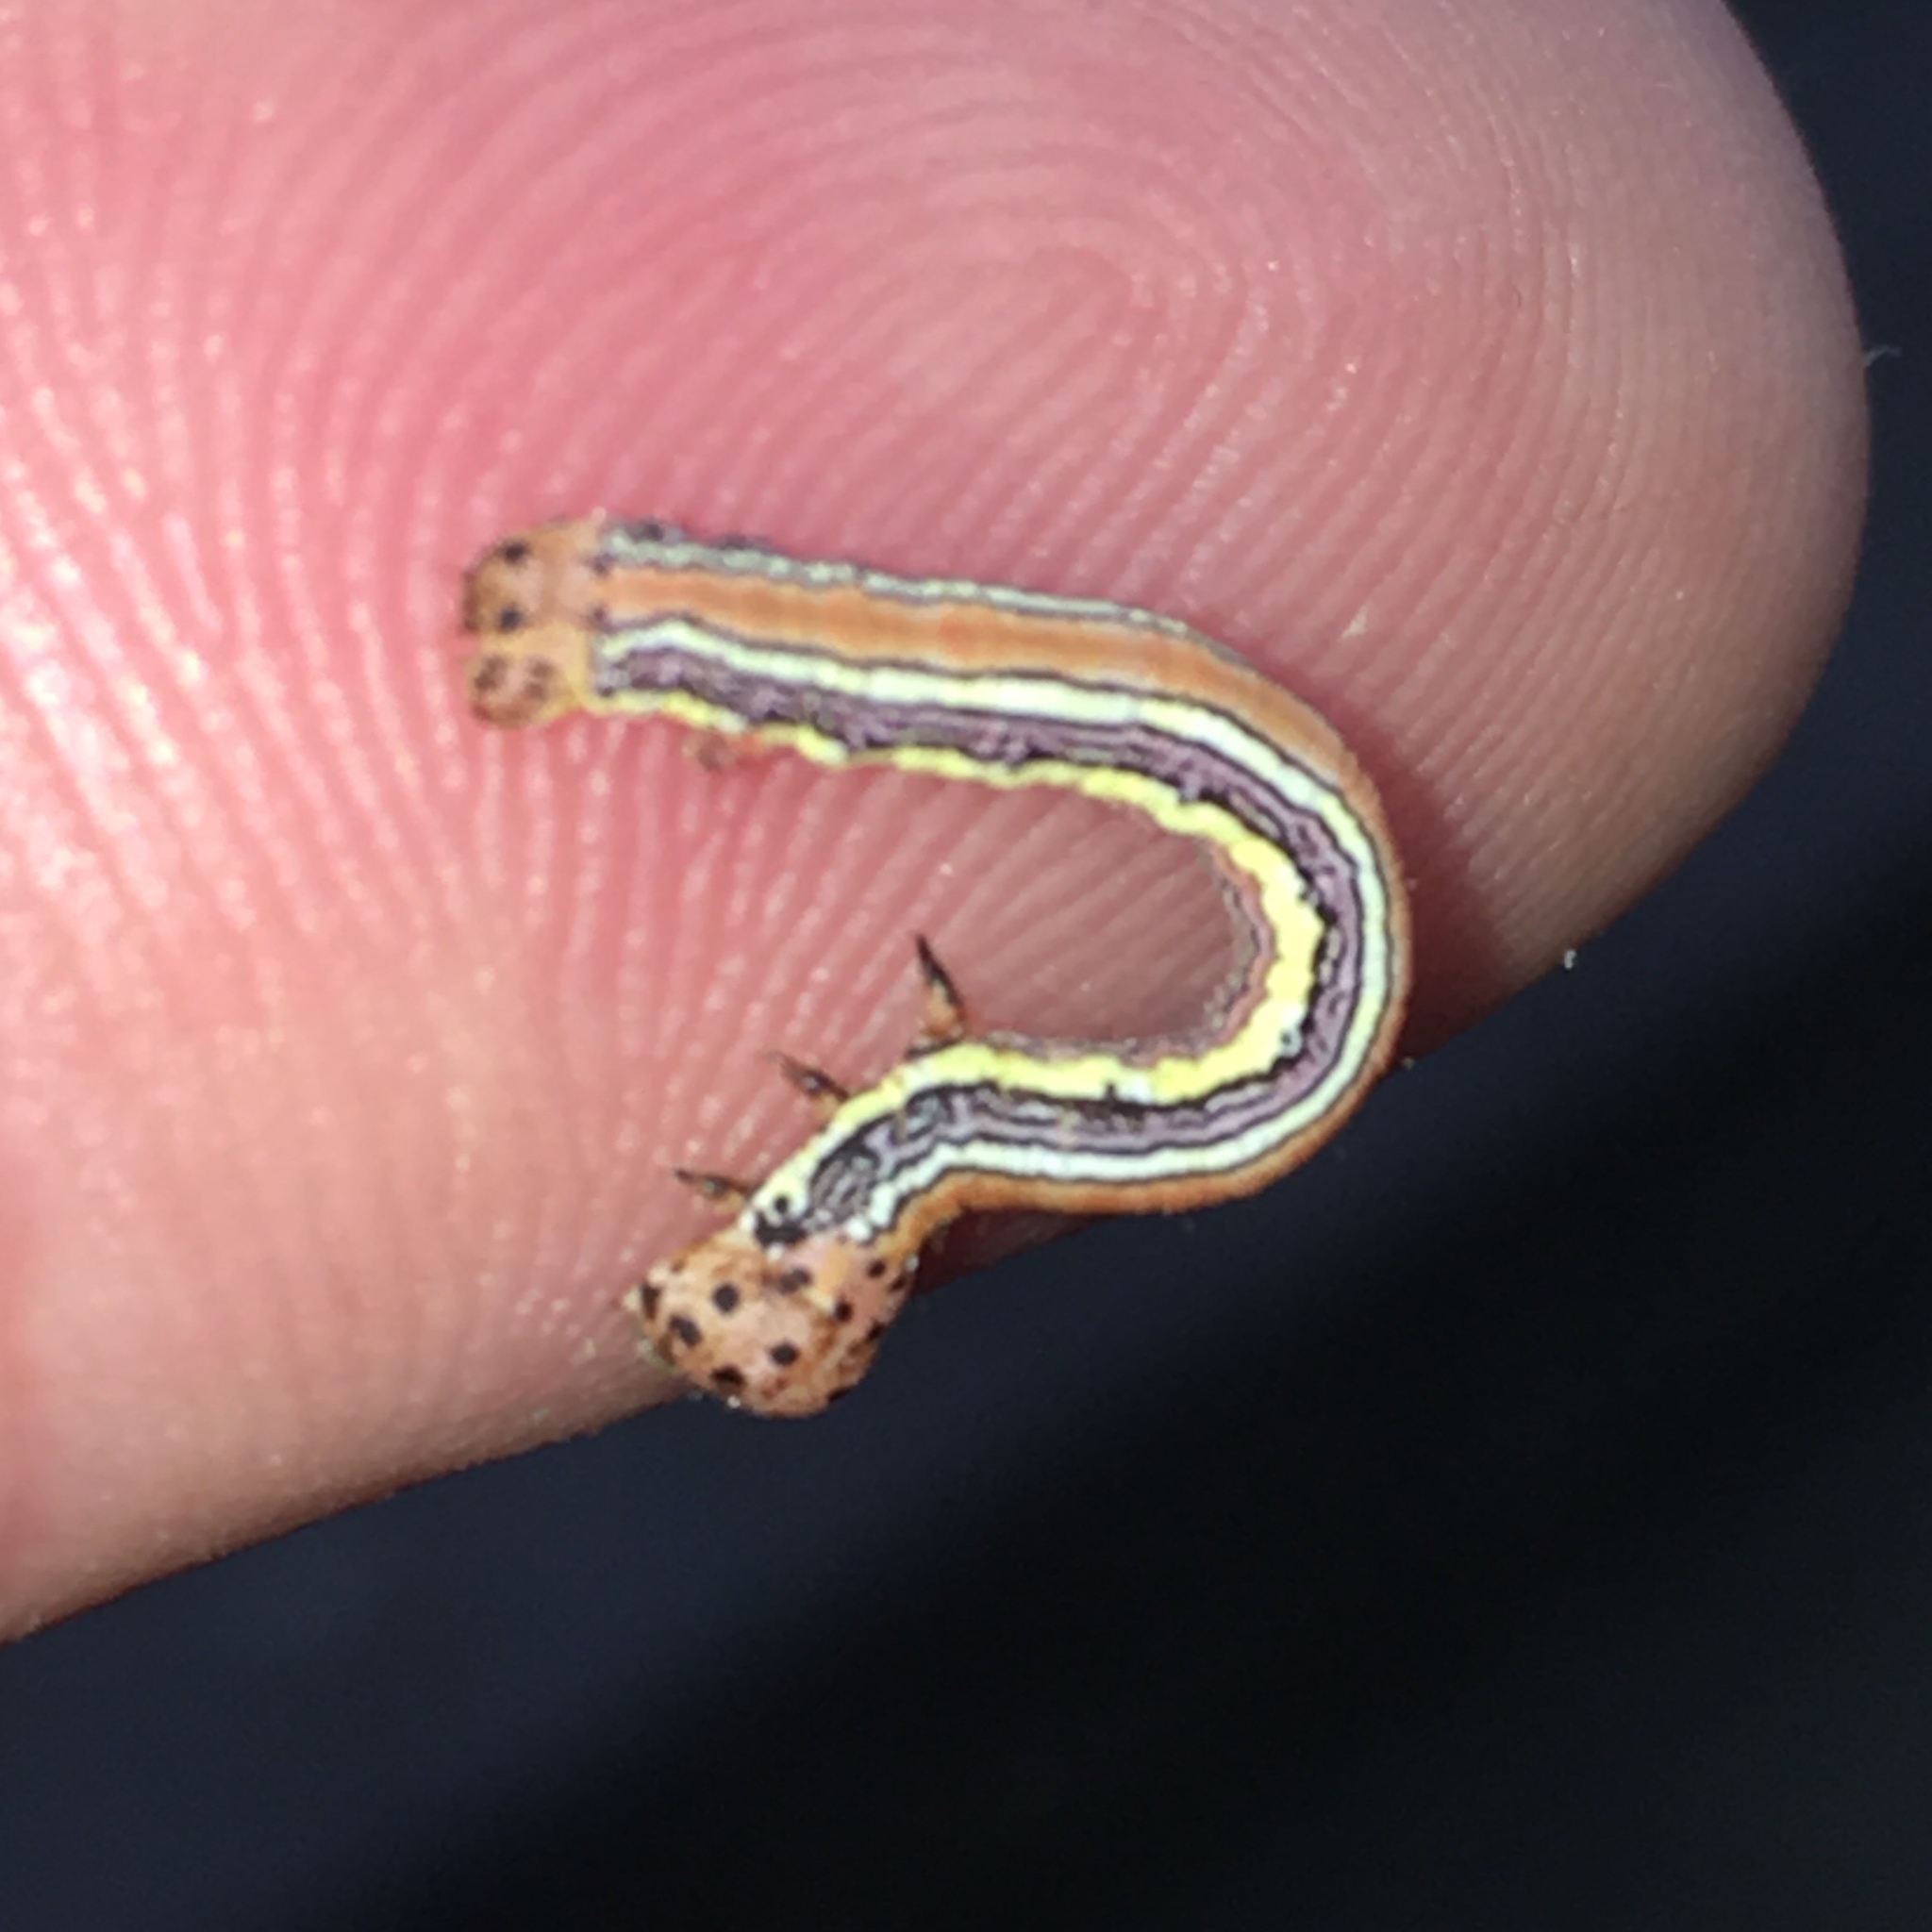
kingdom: Animalia
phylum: Arthropoda
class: Insecta
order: Lepidoptera
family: Geometridae
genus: Nepytia
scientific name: Nepytia canosaria
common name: False hemlock looper
